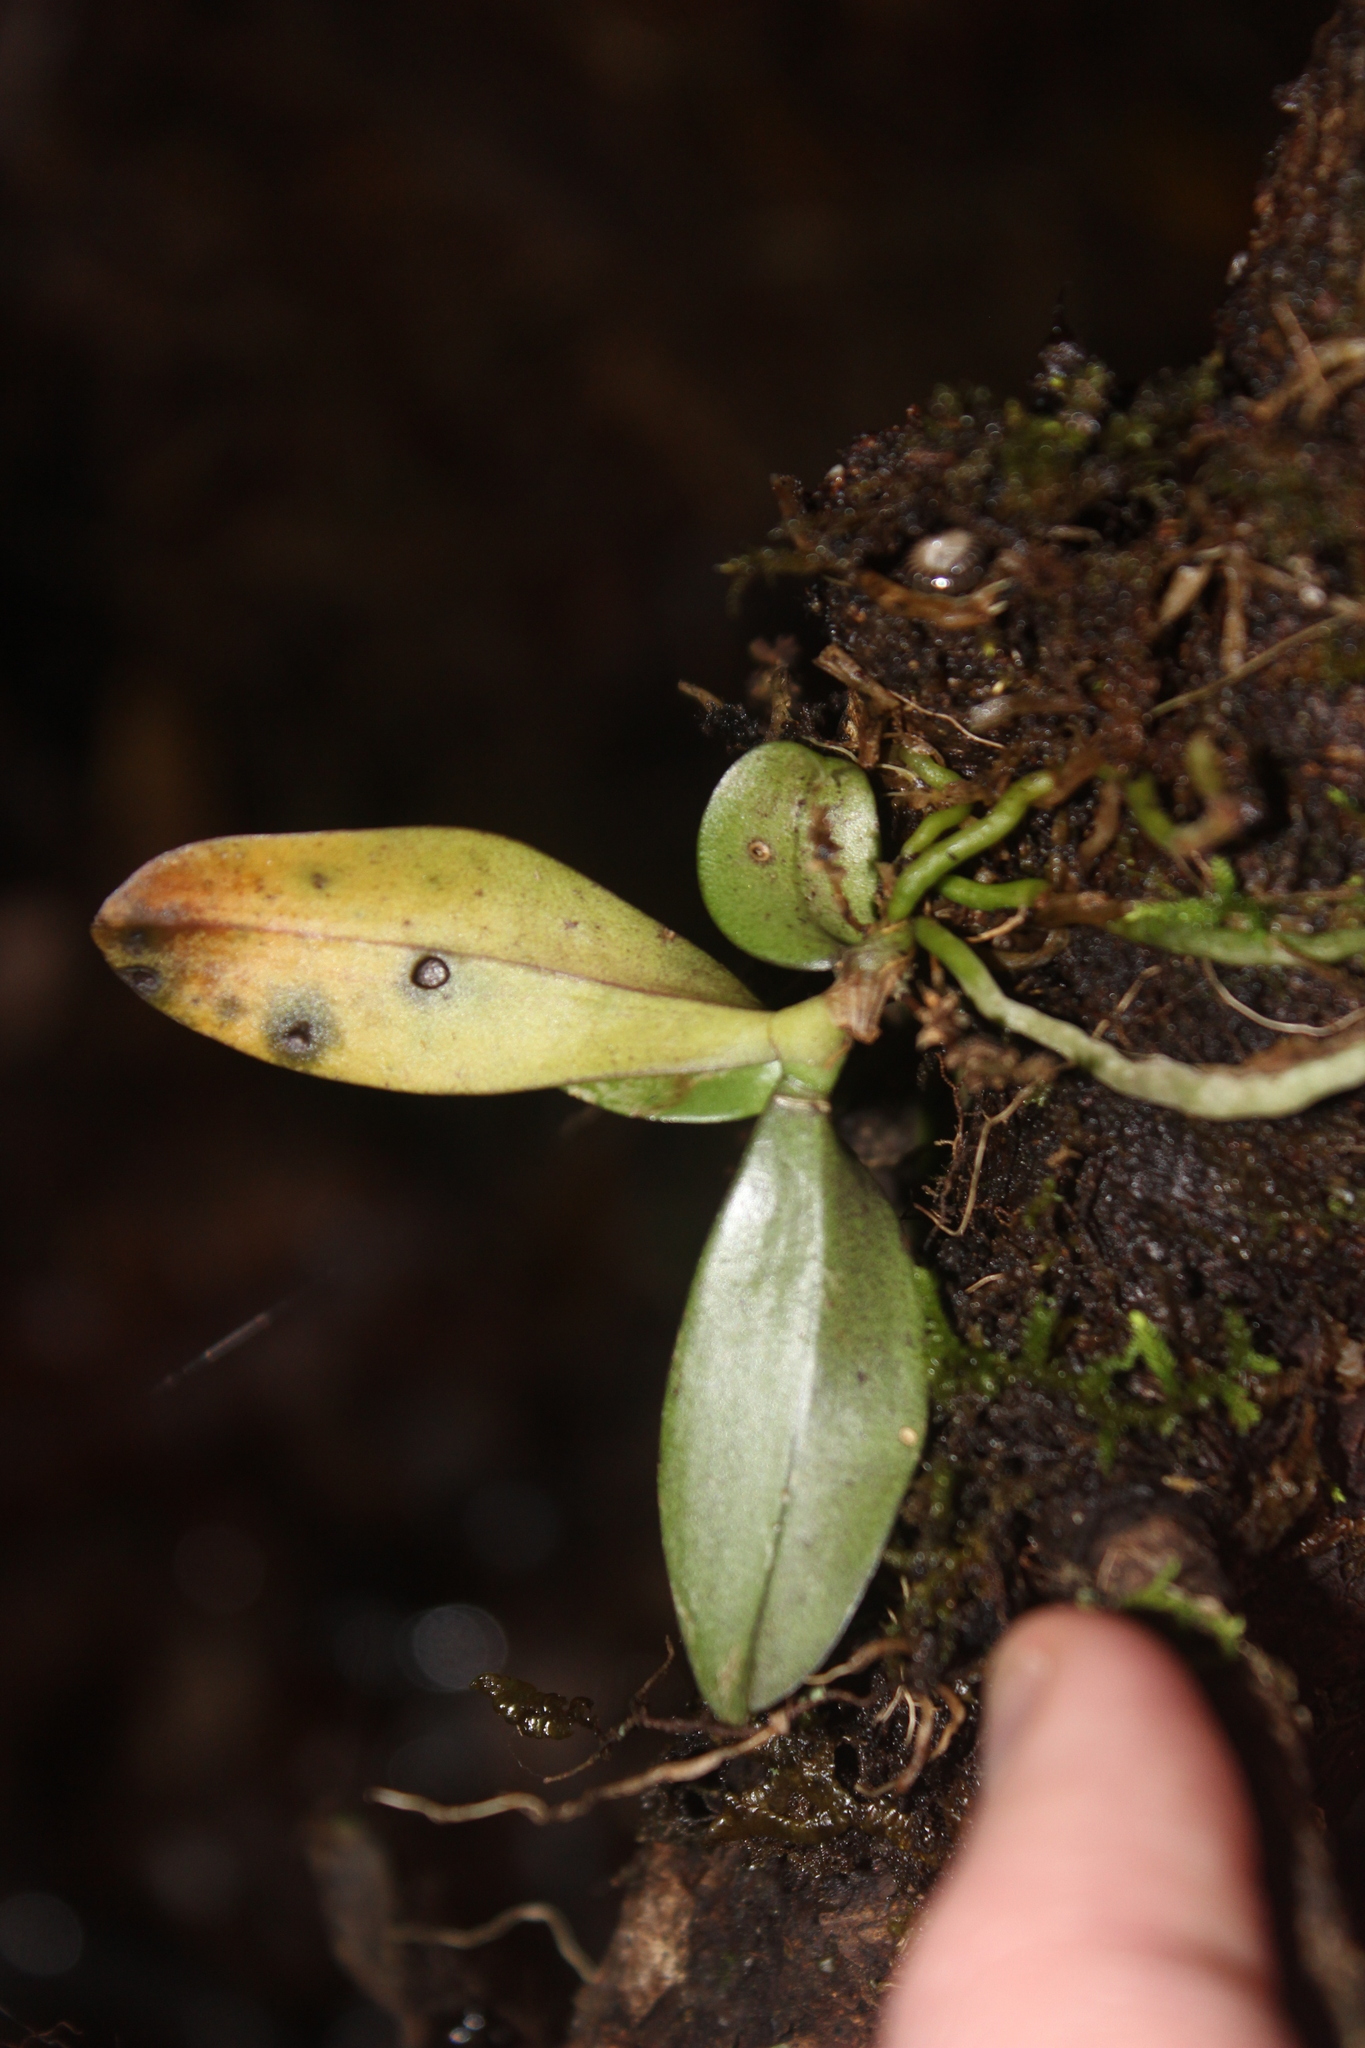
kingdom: Plantae
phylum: Tracheophyta
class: Liliopsida
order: Asparagales
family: Orchidaceae
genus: Drymoanthus
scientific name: Drymoanthus adversus
